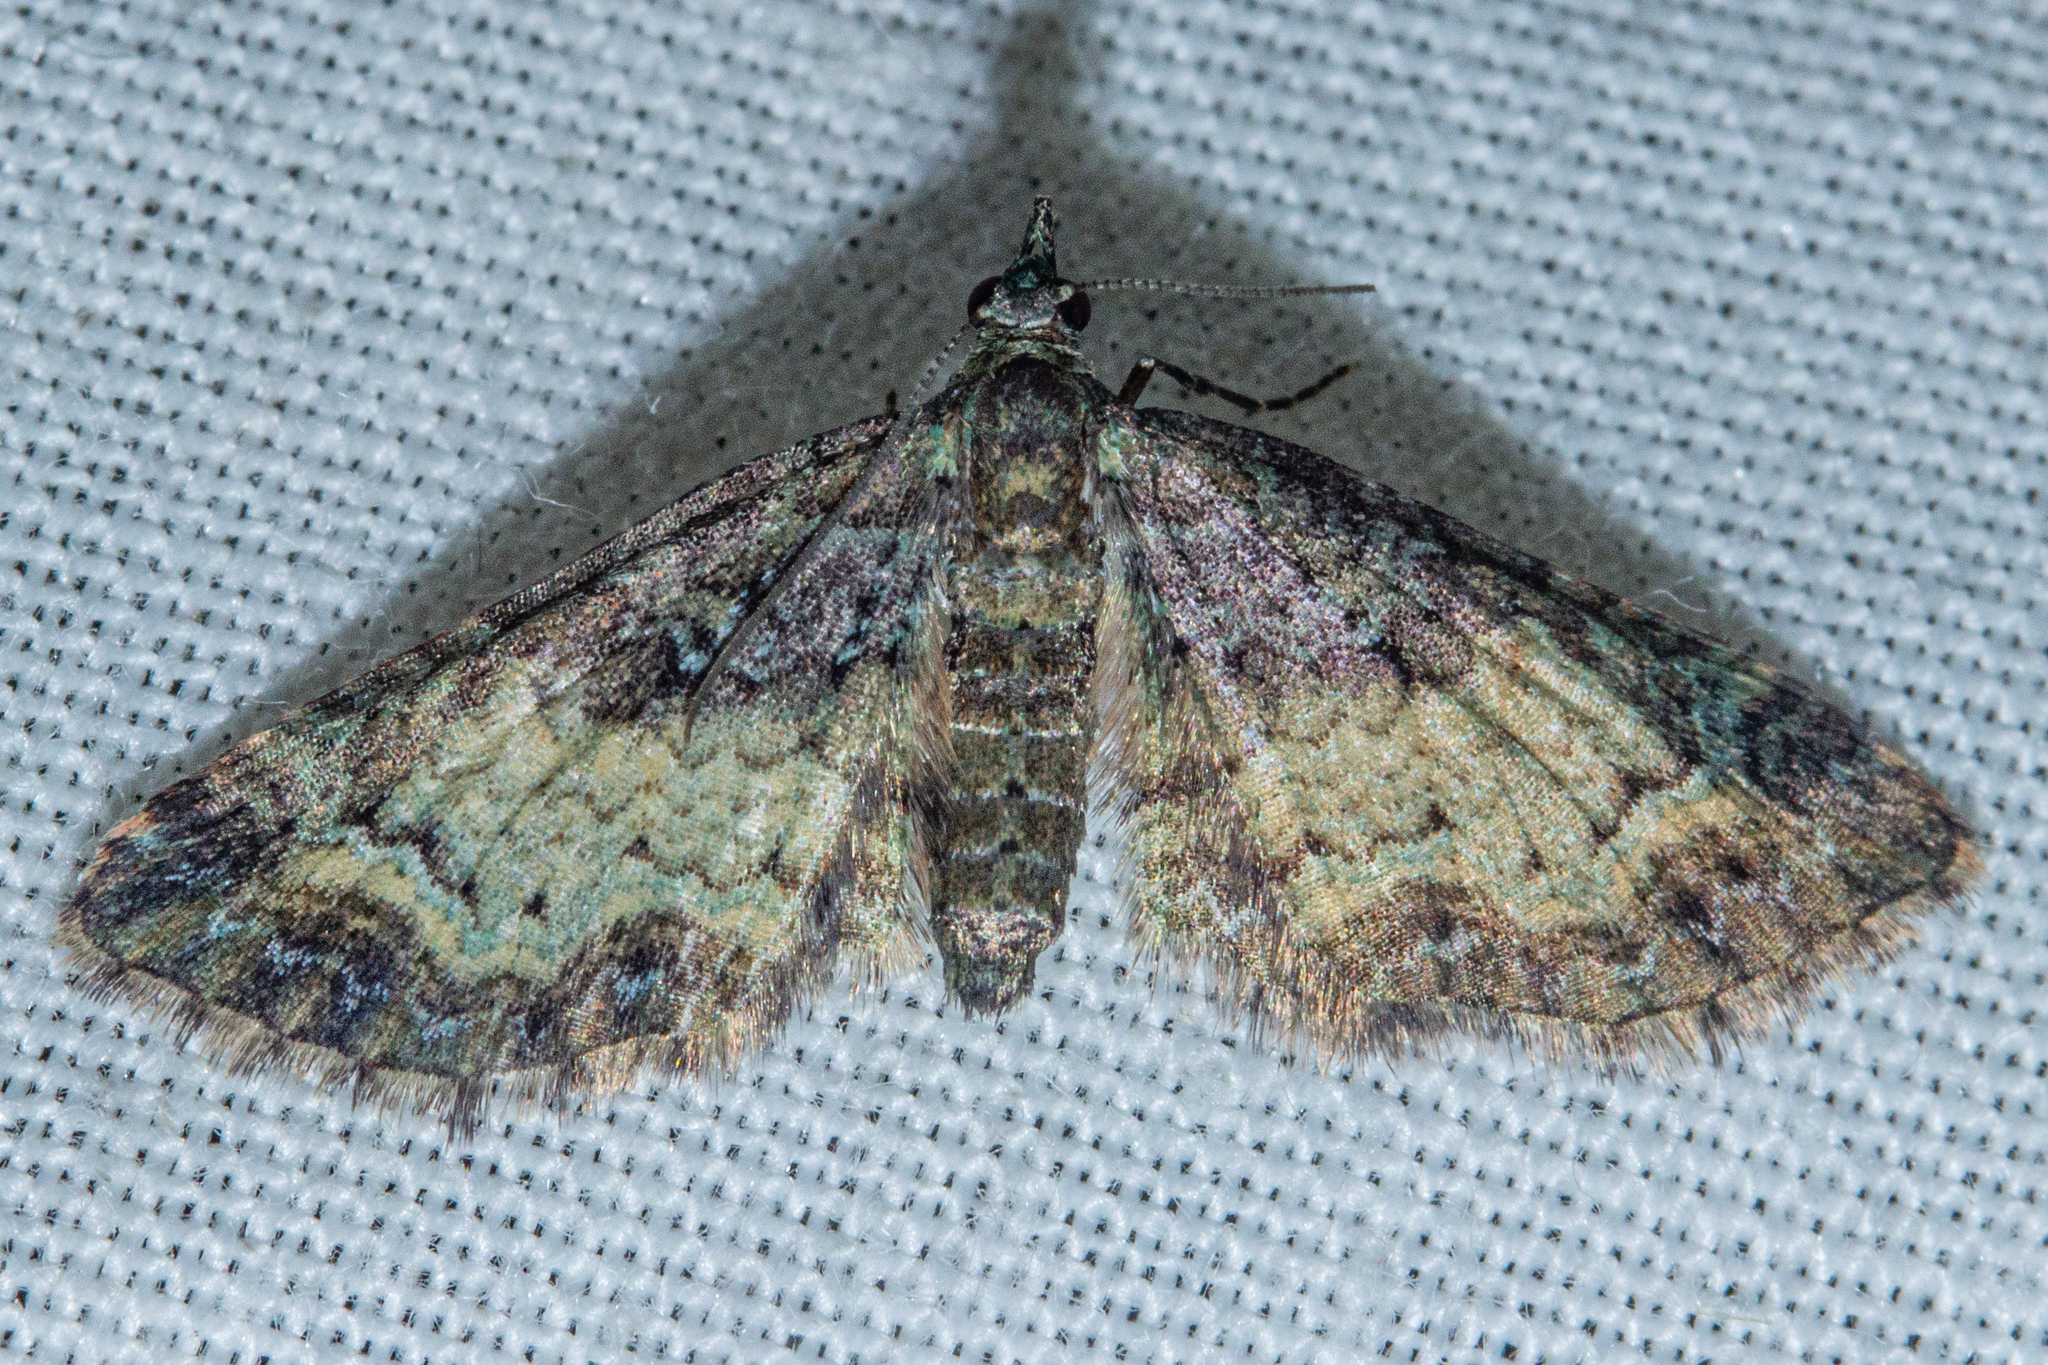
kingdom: Animalia
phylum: Arthropoda
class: Insecta
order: Lepidoptera
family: Geometridae
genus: Pasiphila
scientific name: Pasiphila lunata
